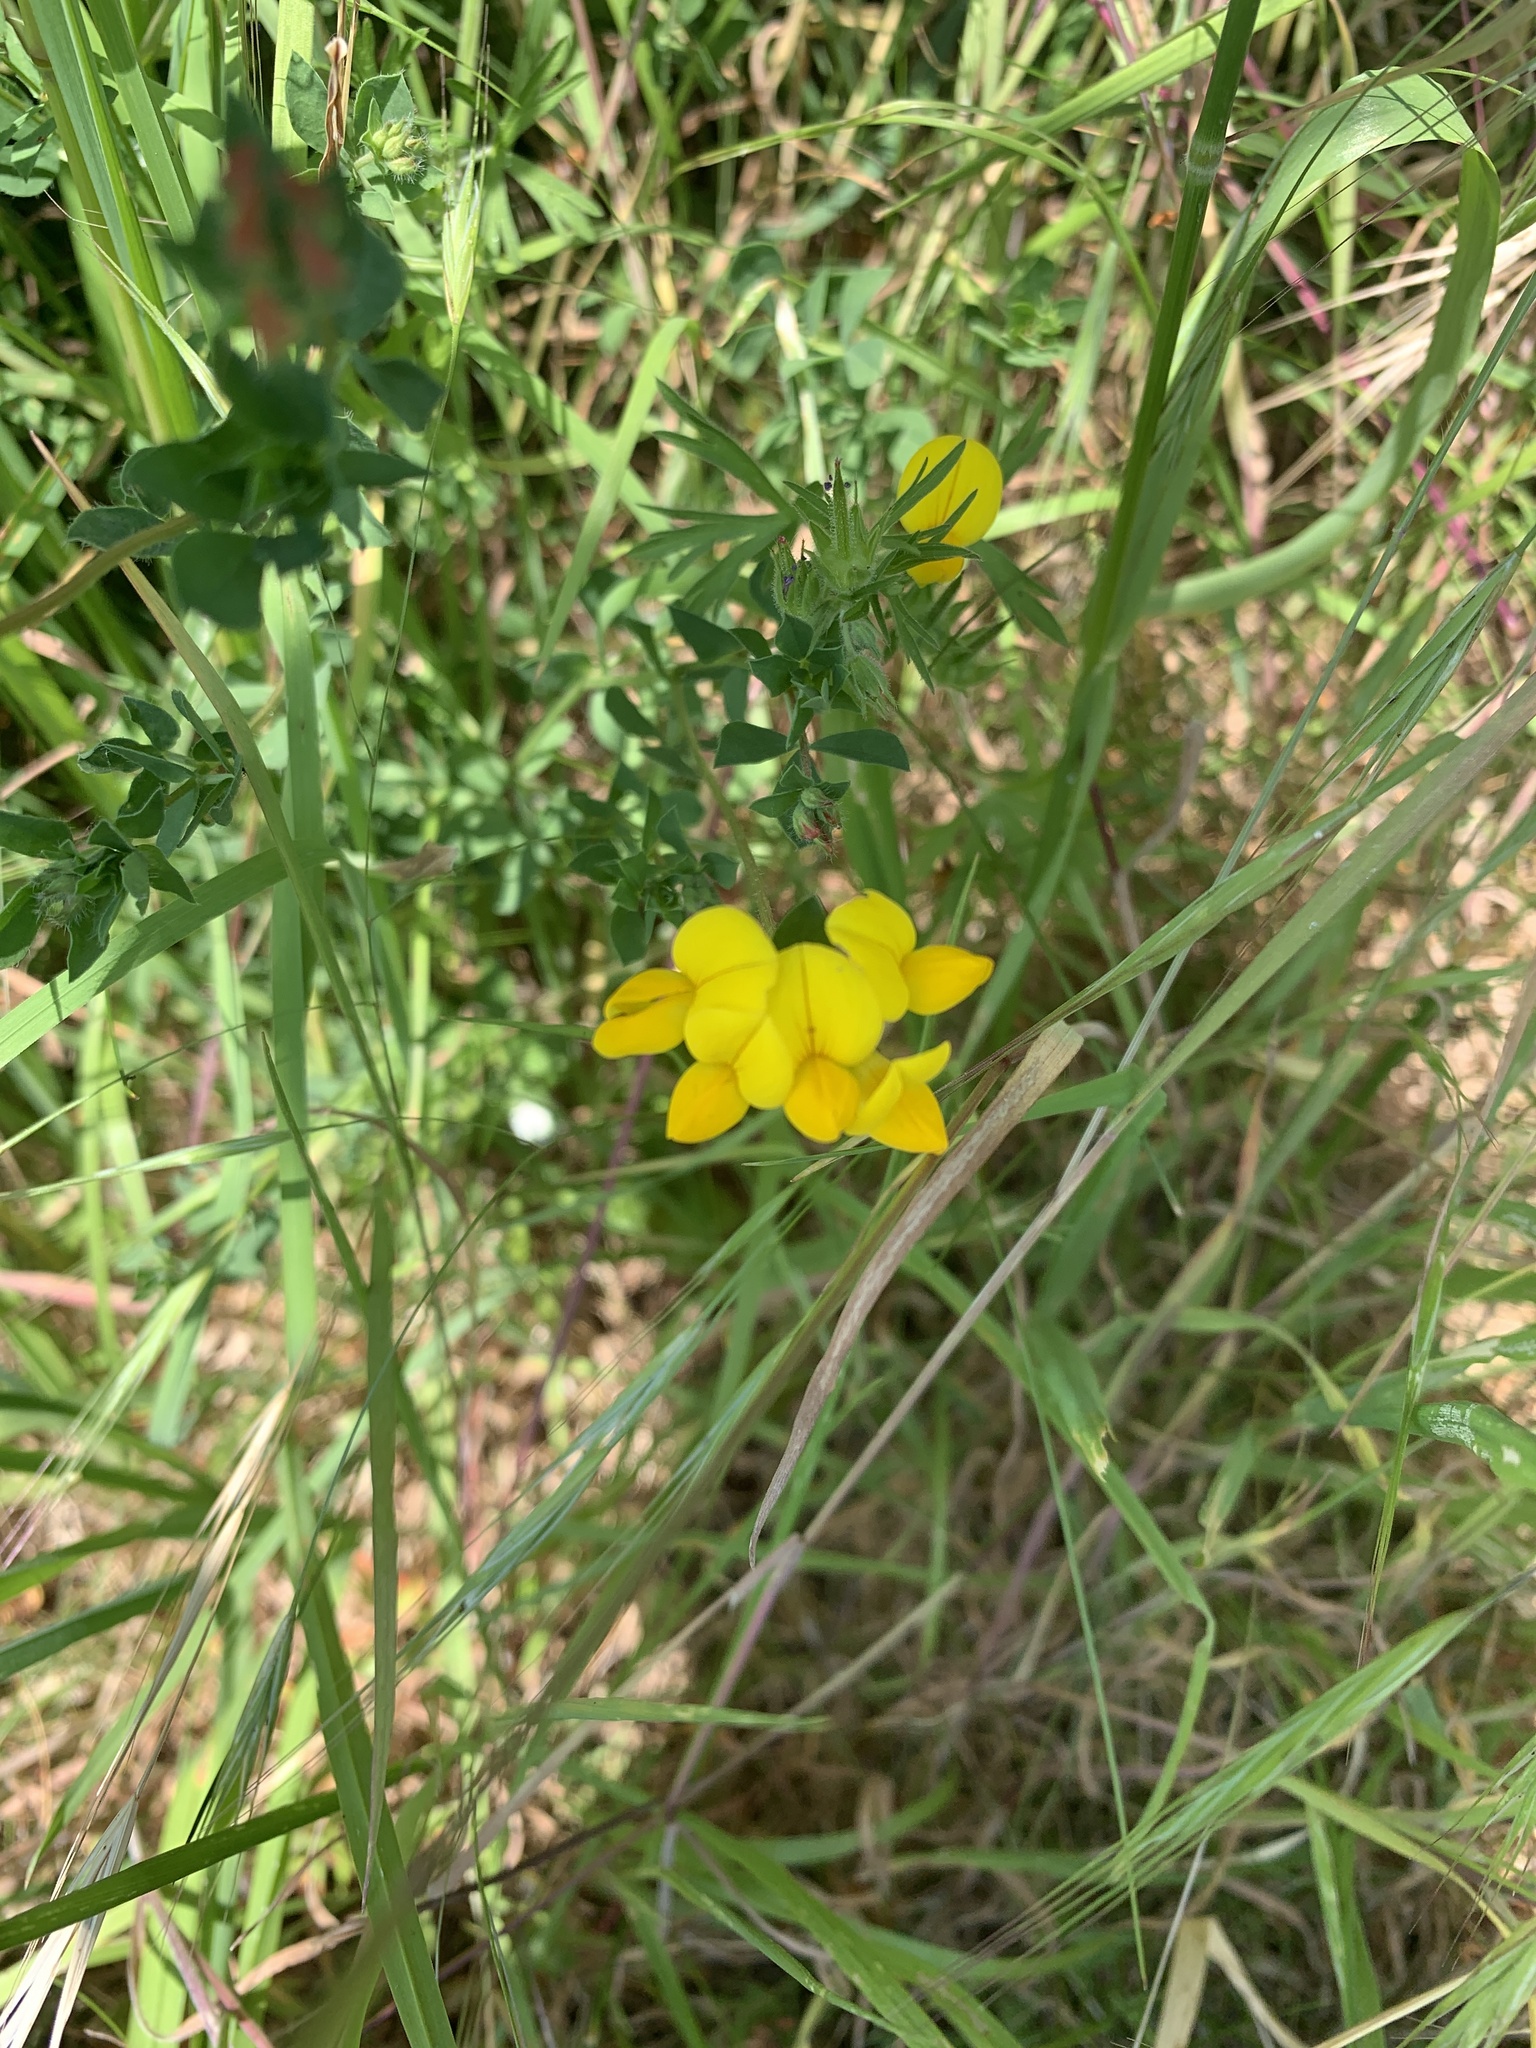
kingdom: Plantae
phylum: Tracheophyta
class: Magnoliopsida
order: Fabales
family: Fabaceae
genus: Lotus
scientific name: Lotus corniculatus
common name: Common bird's-foot-trefoil
